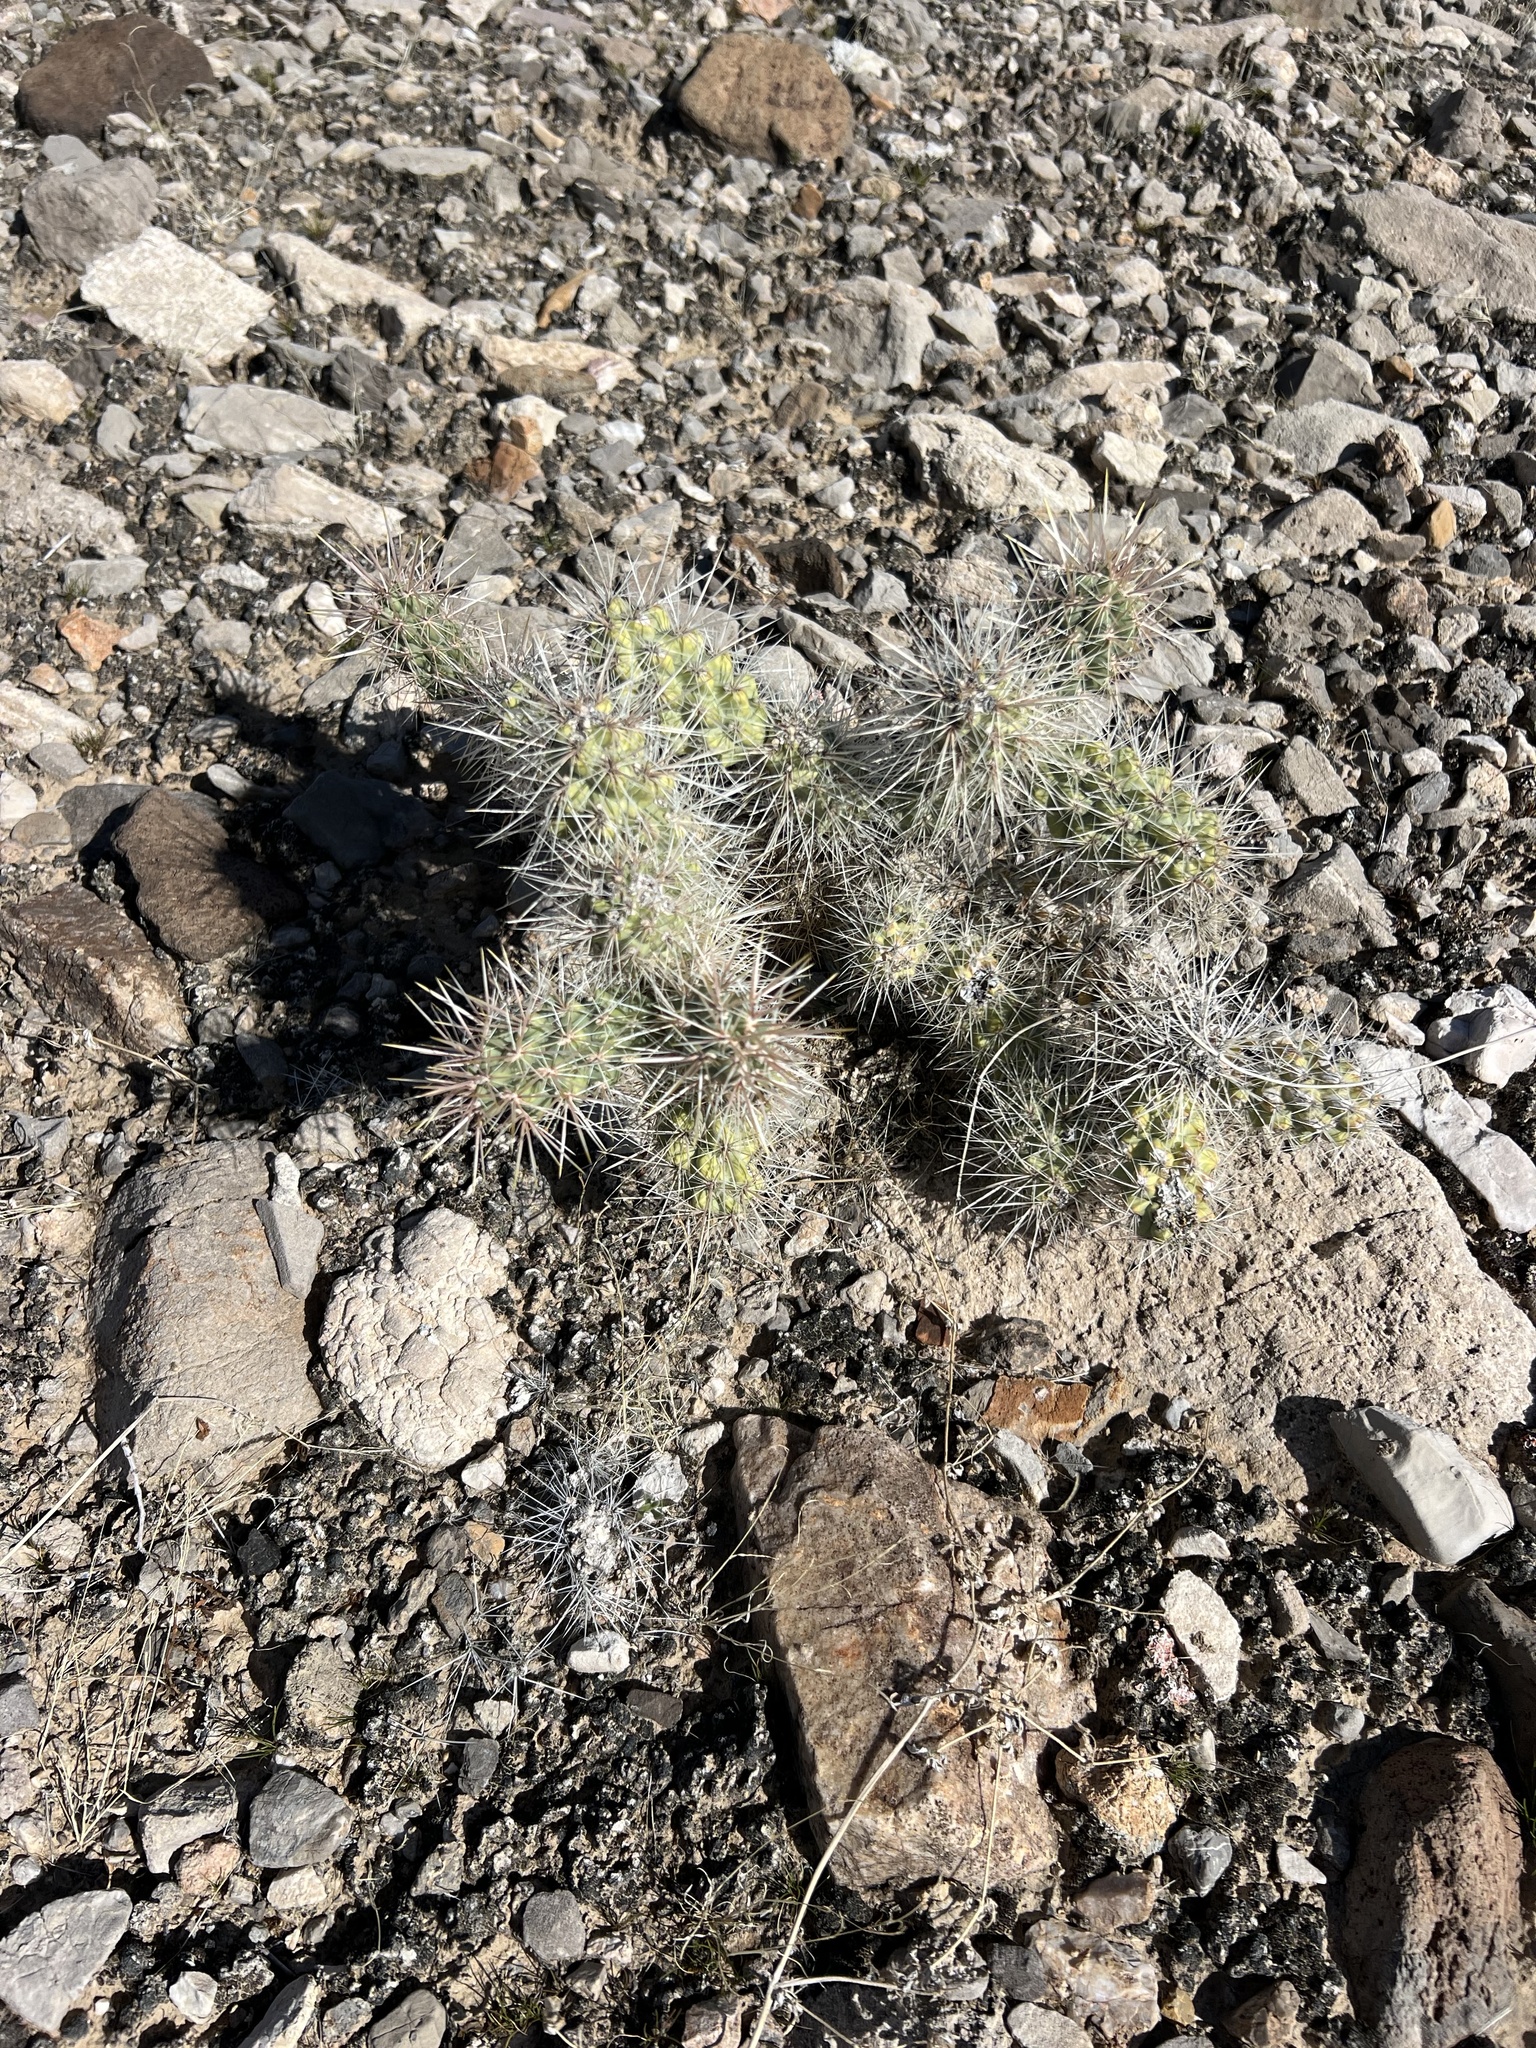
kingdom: Plantae
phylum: Tracheophyta
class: Magnoliopsida
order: Caryophyllales
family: Cactaceae
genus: Cylindropuntia
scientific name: Cylindropuntia echinocarpa
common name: Ground cholla
